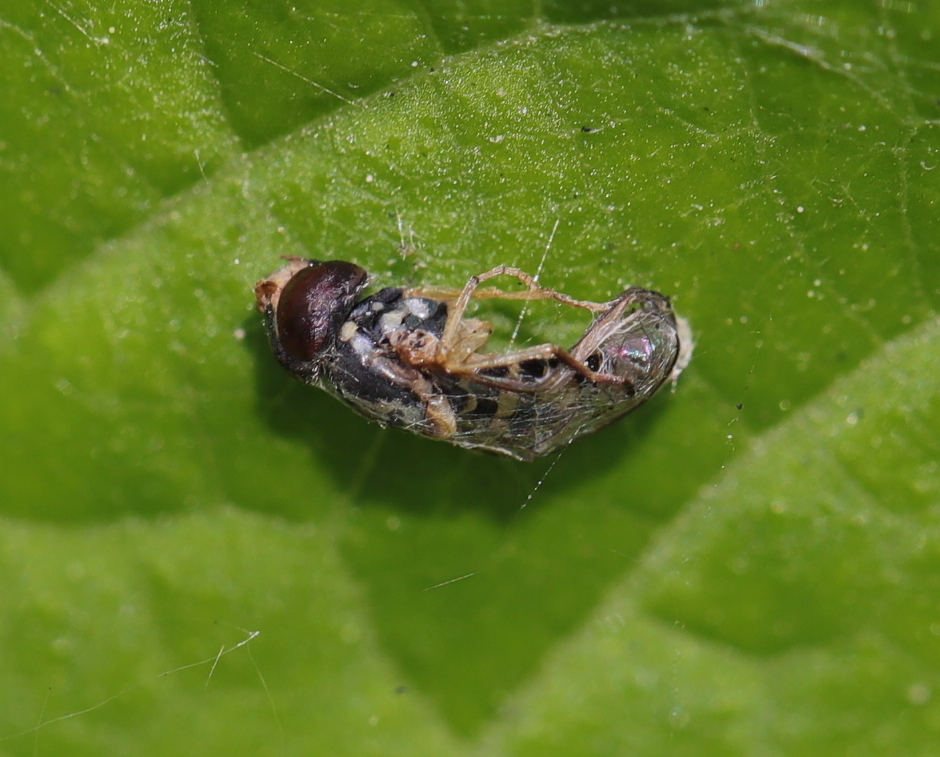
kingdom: Animalia
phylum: Arthropoda
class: Insecta
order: Diptera
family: Syrphidae
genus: Toxomerus
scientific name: Toxomerus
